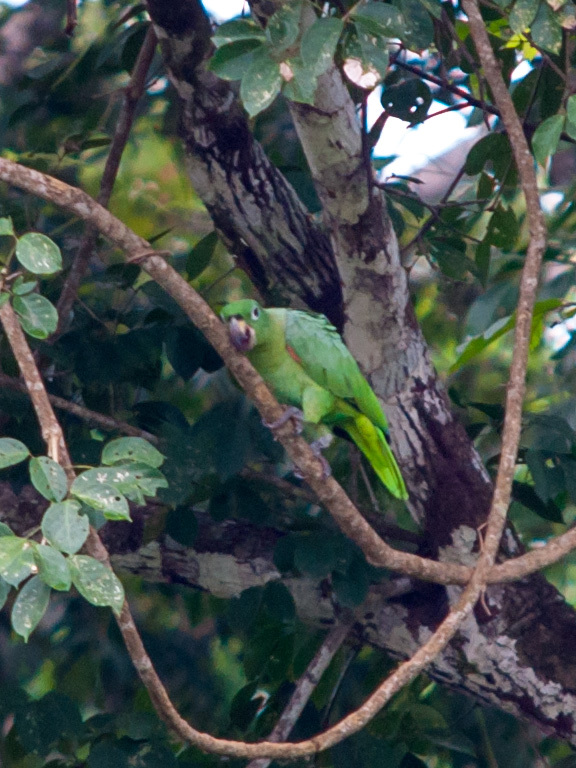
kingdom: Animalia
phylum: Chordata
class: Aves
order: Psittaciformes
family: Psittacidae
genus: Amazona
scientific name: Amazona farinosa
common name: Mealy parrot
